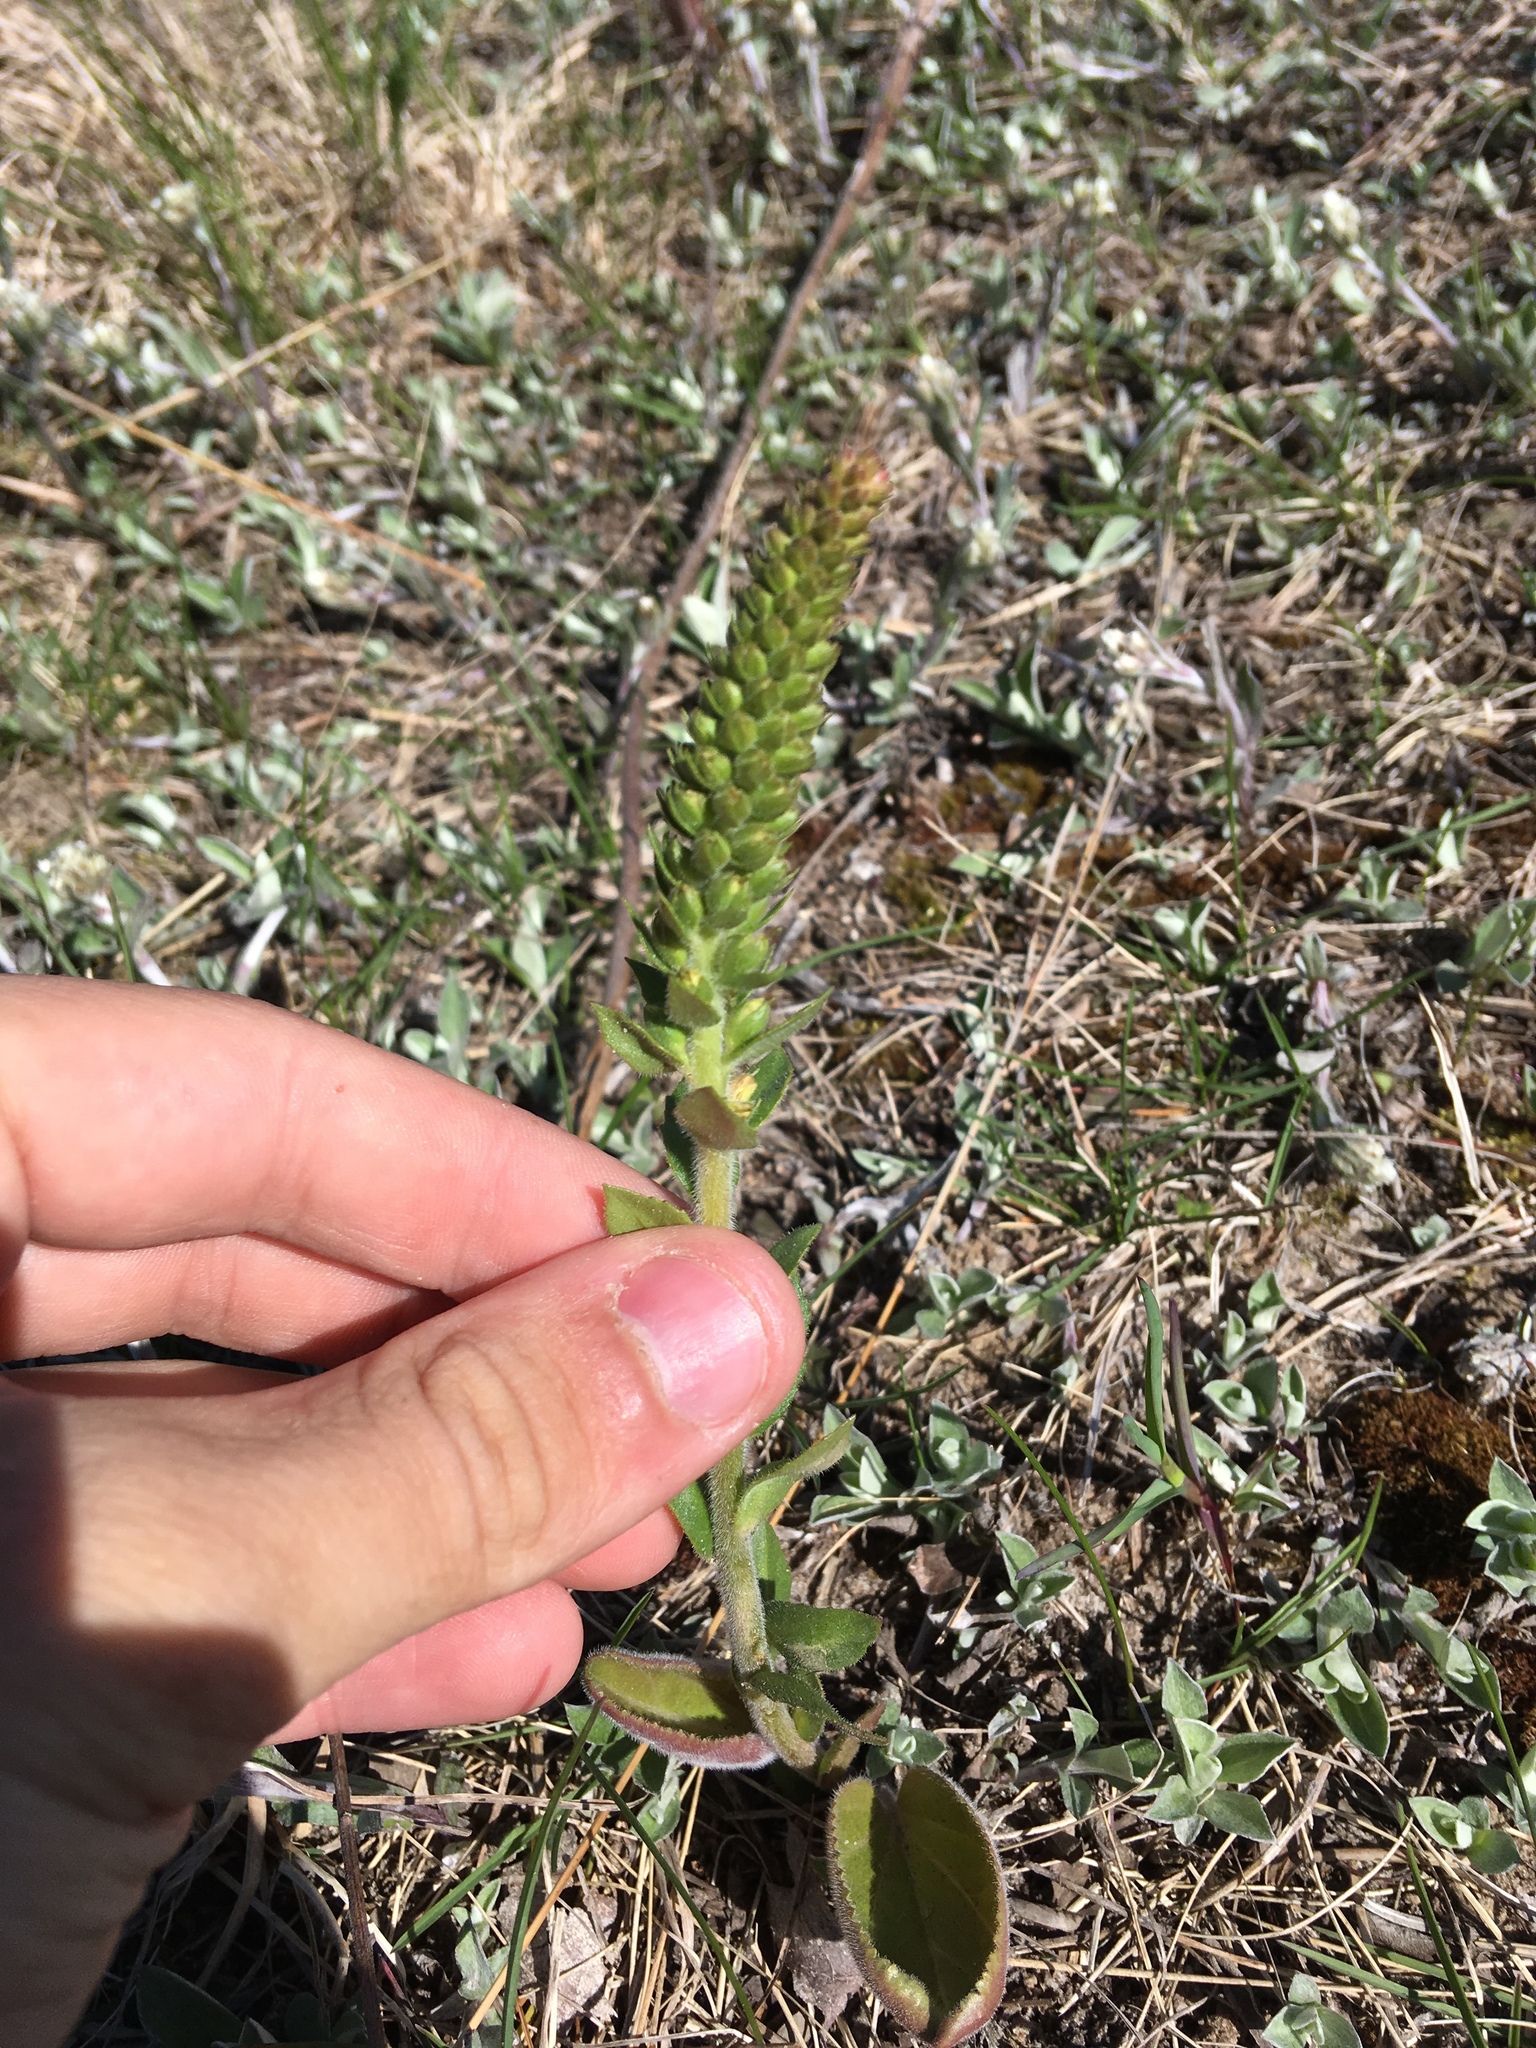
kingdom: Plantae
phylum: Tracheophyta
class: Magnoliopsida
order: Lamiales
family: Plantaginaceae
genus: Synthyris
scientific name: Synthyris bullii
